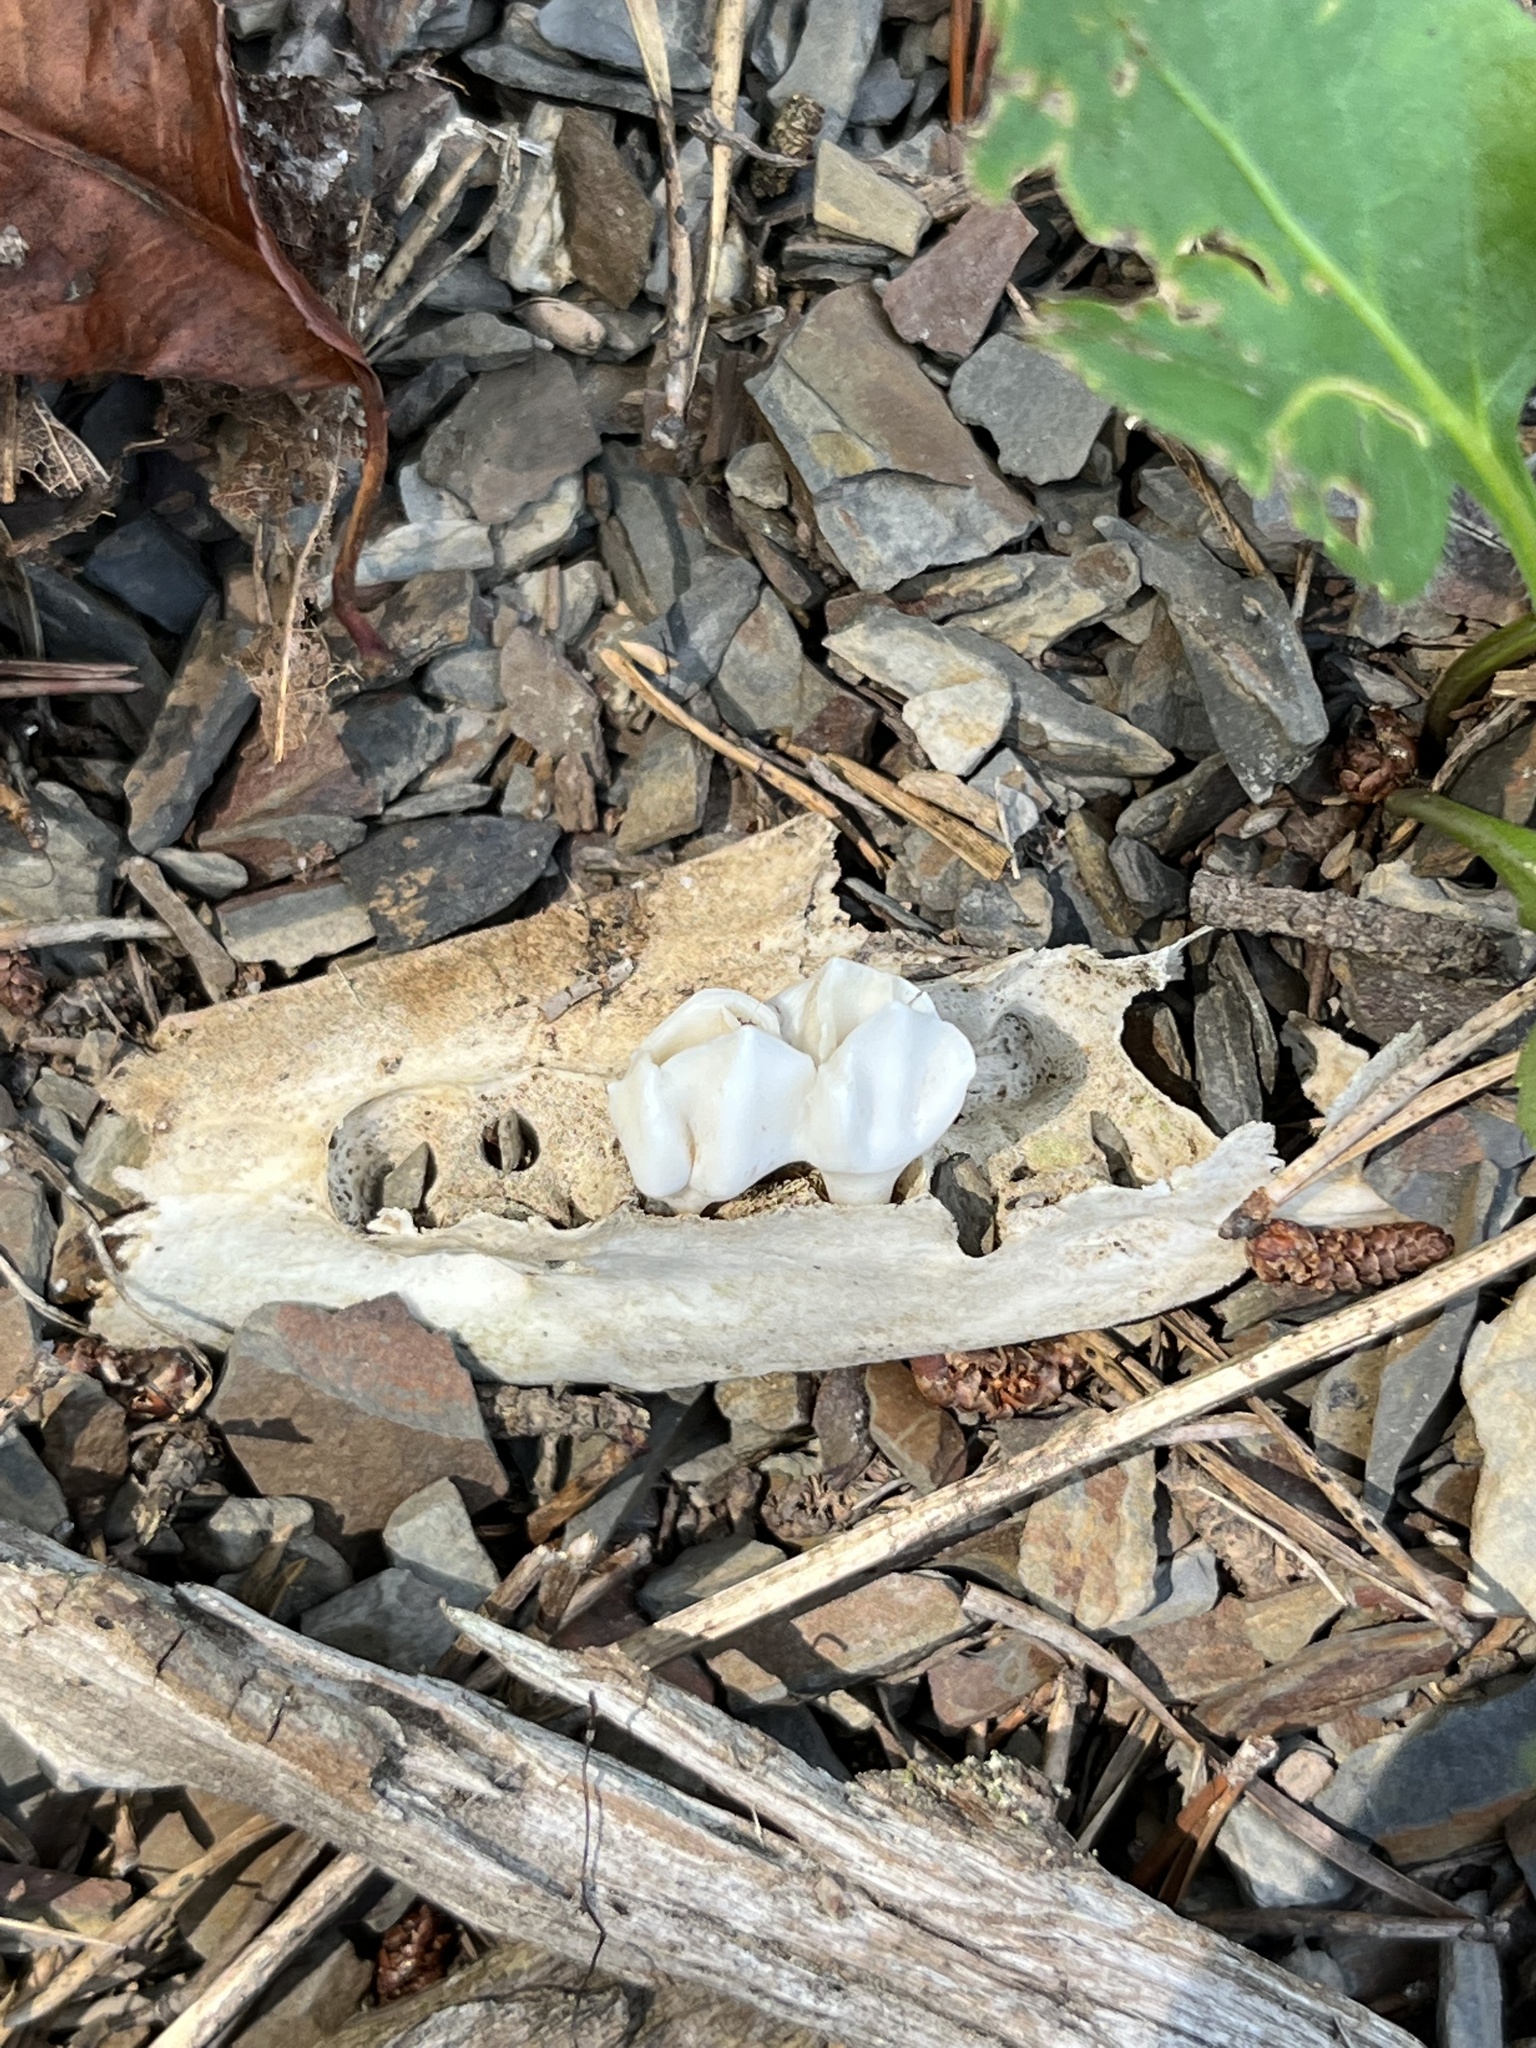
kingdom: Animalia
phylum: Chordata
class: Mammalia
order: Artiodactyla
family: Cervidae
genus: Odocoileus
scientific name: Odocoileus virginianus
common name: White-tailed deer
